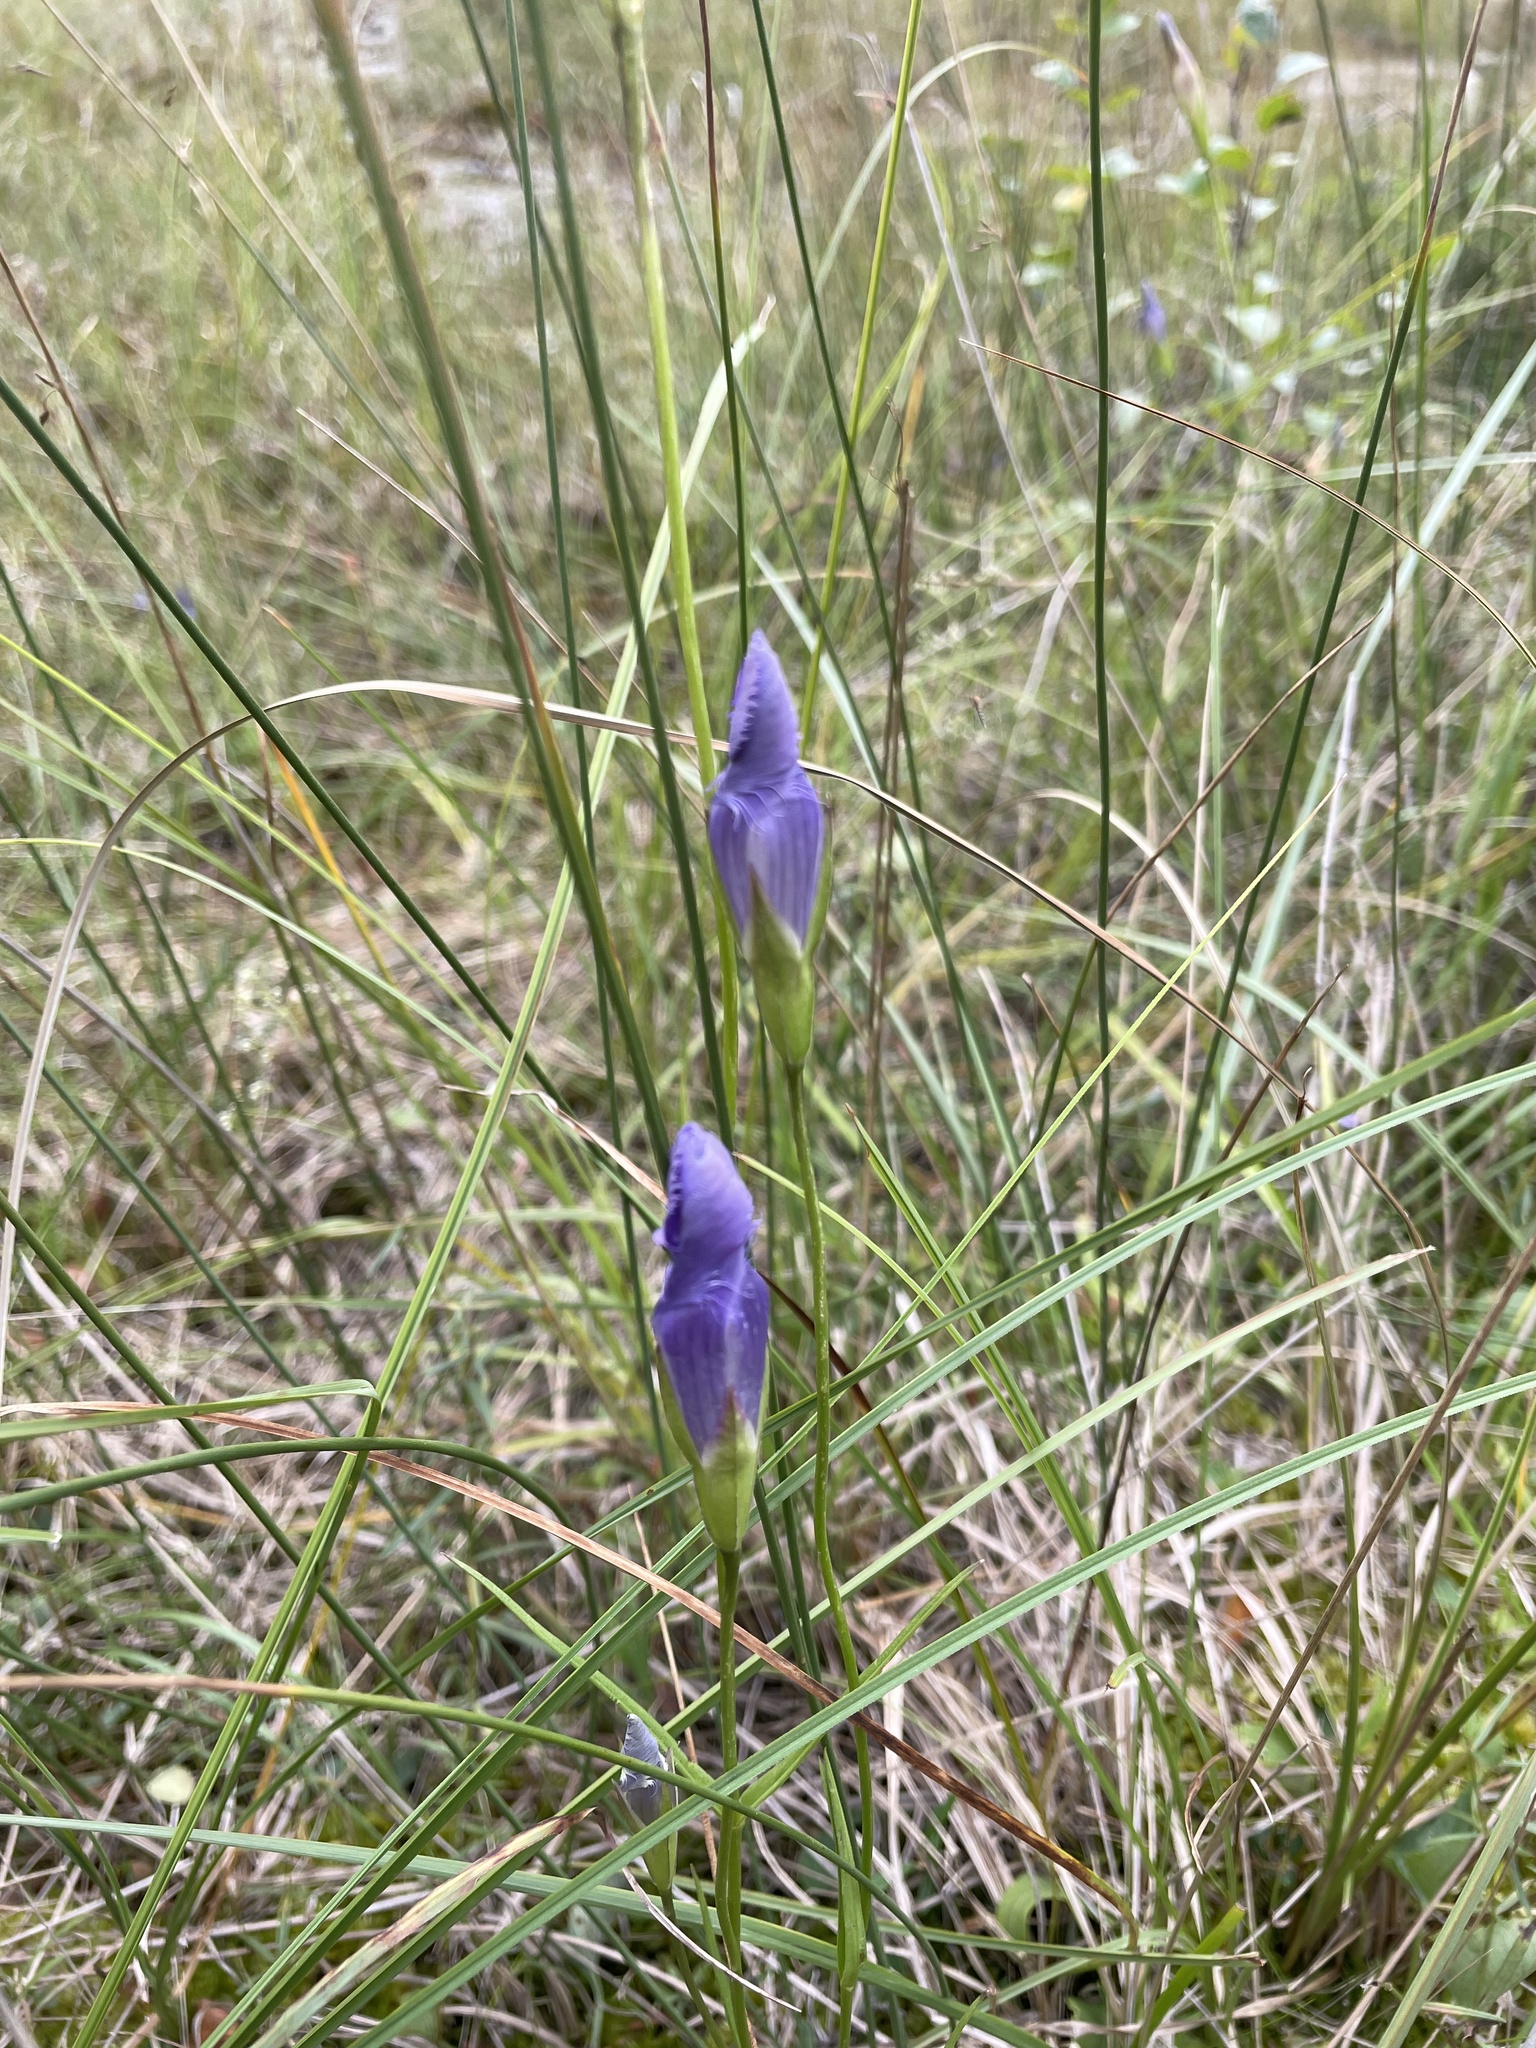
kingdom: Plantae
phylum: Tracheophyta
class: Magnoliopsida
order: Gentianales
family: Gentianaceae
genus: Gentianopsis
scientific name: Gentianopsis virgata
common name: Lesser fringed-gentian
